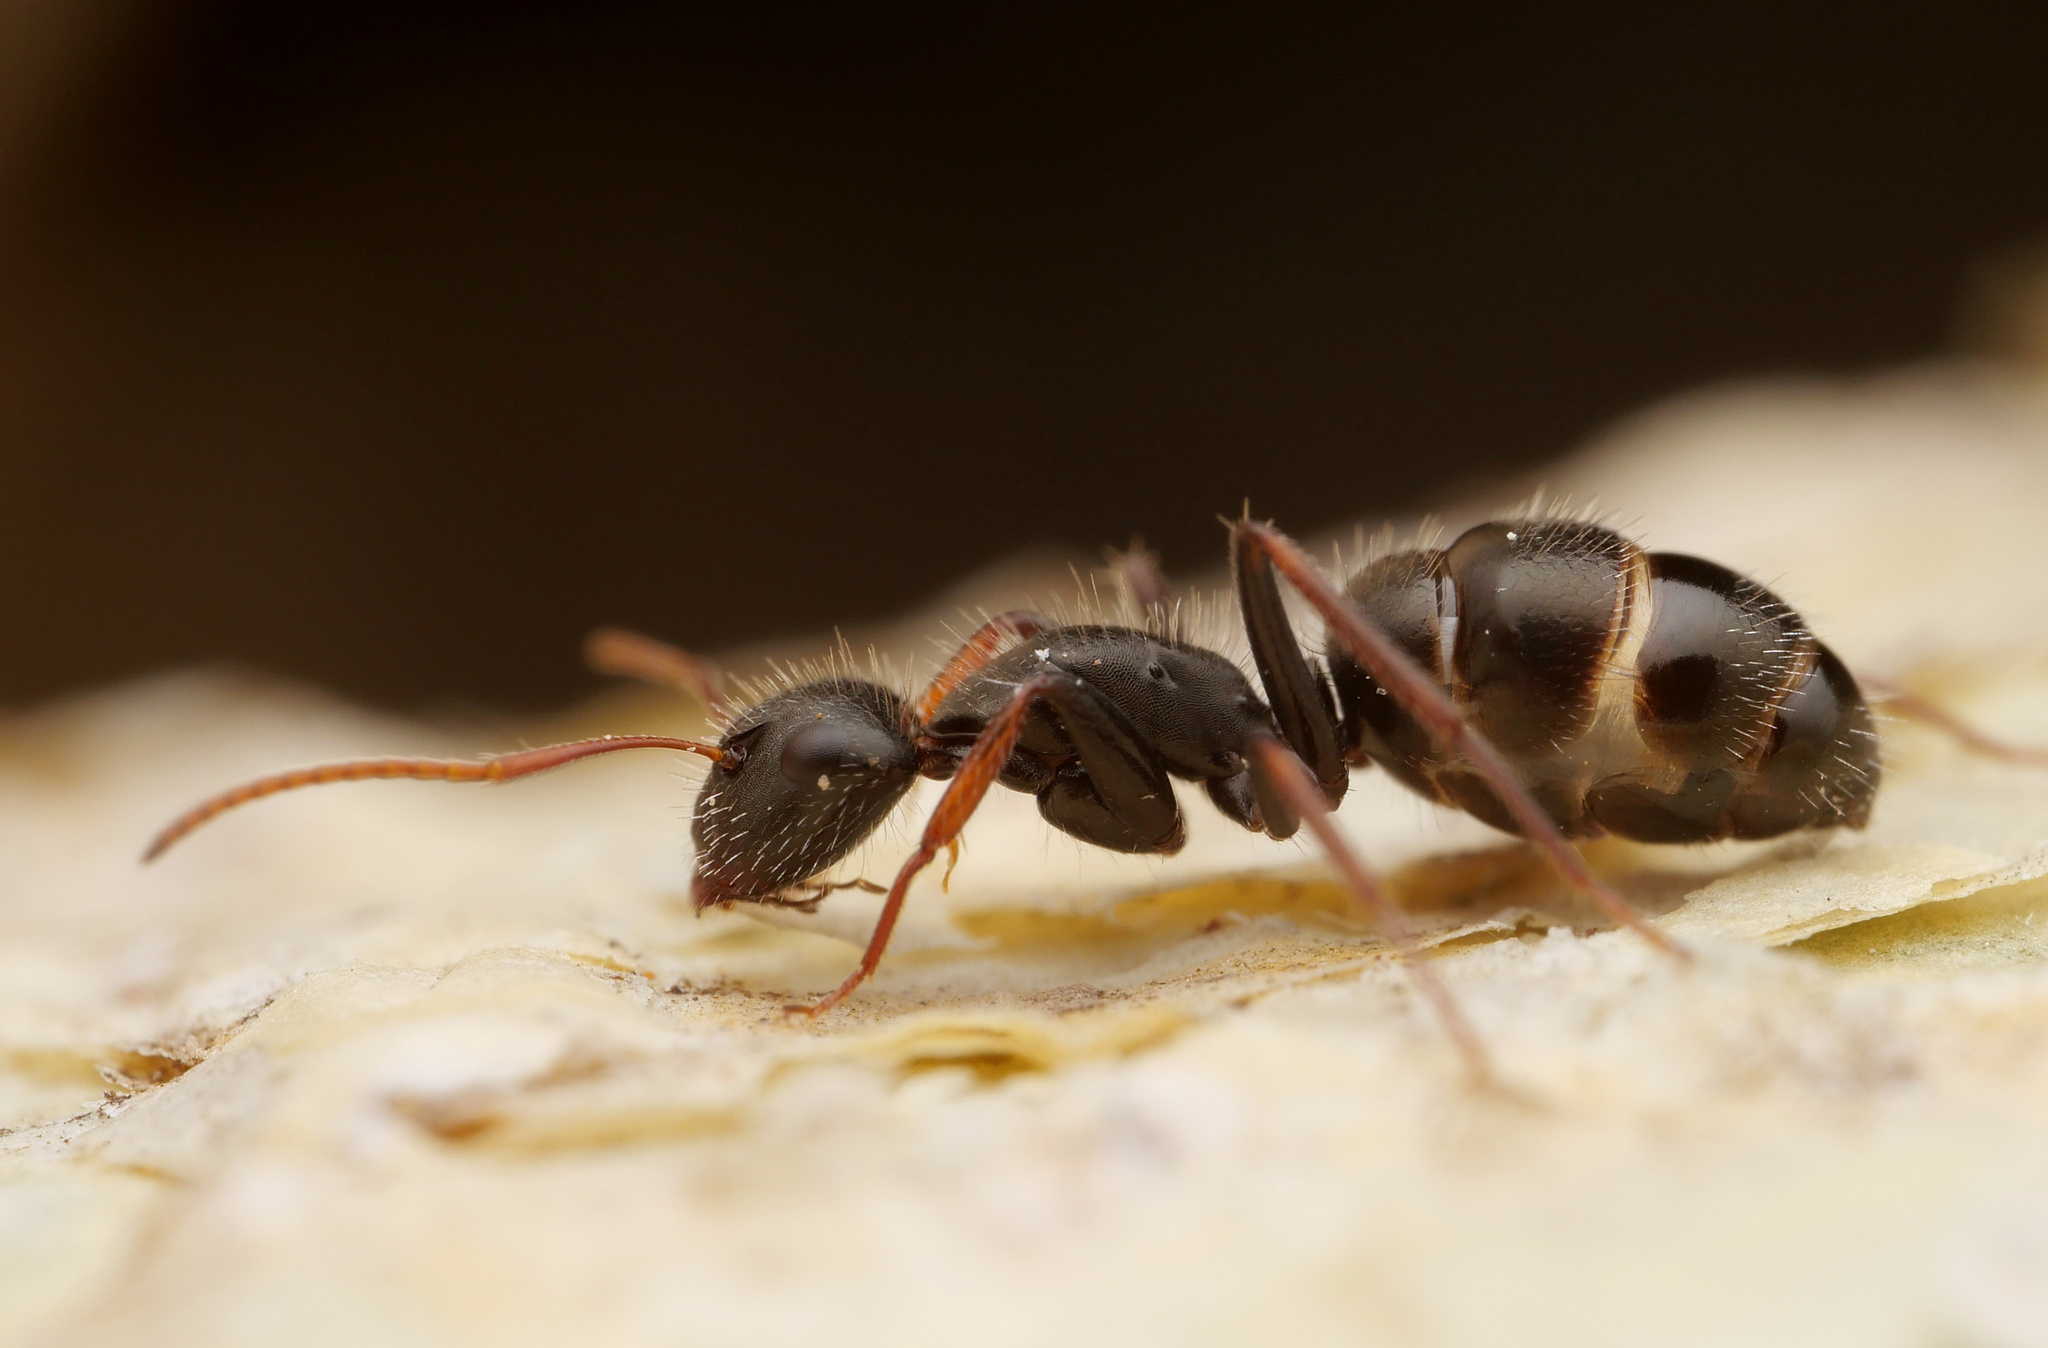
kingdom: Animalia
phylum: Arthropoda
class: Insecta
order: Hymenoptera
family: Formicidae
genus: Camponotus
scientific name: Camponotus mina
